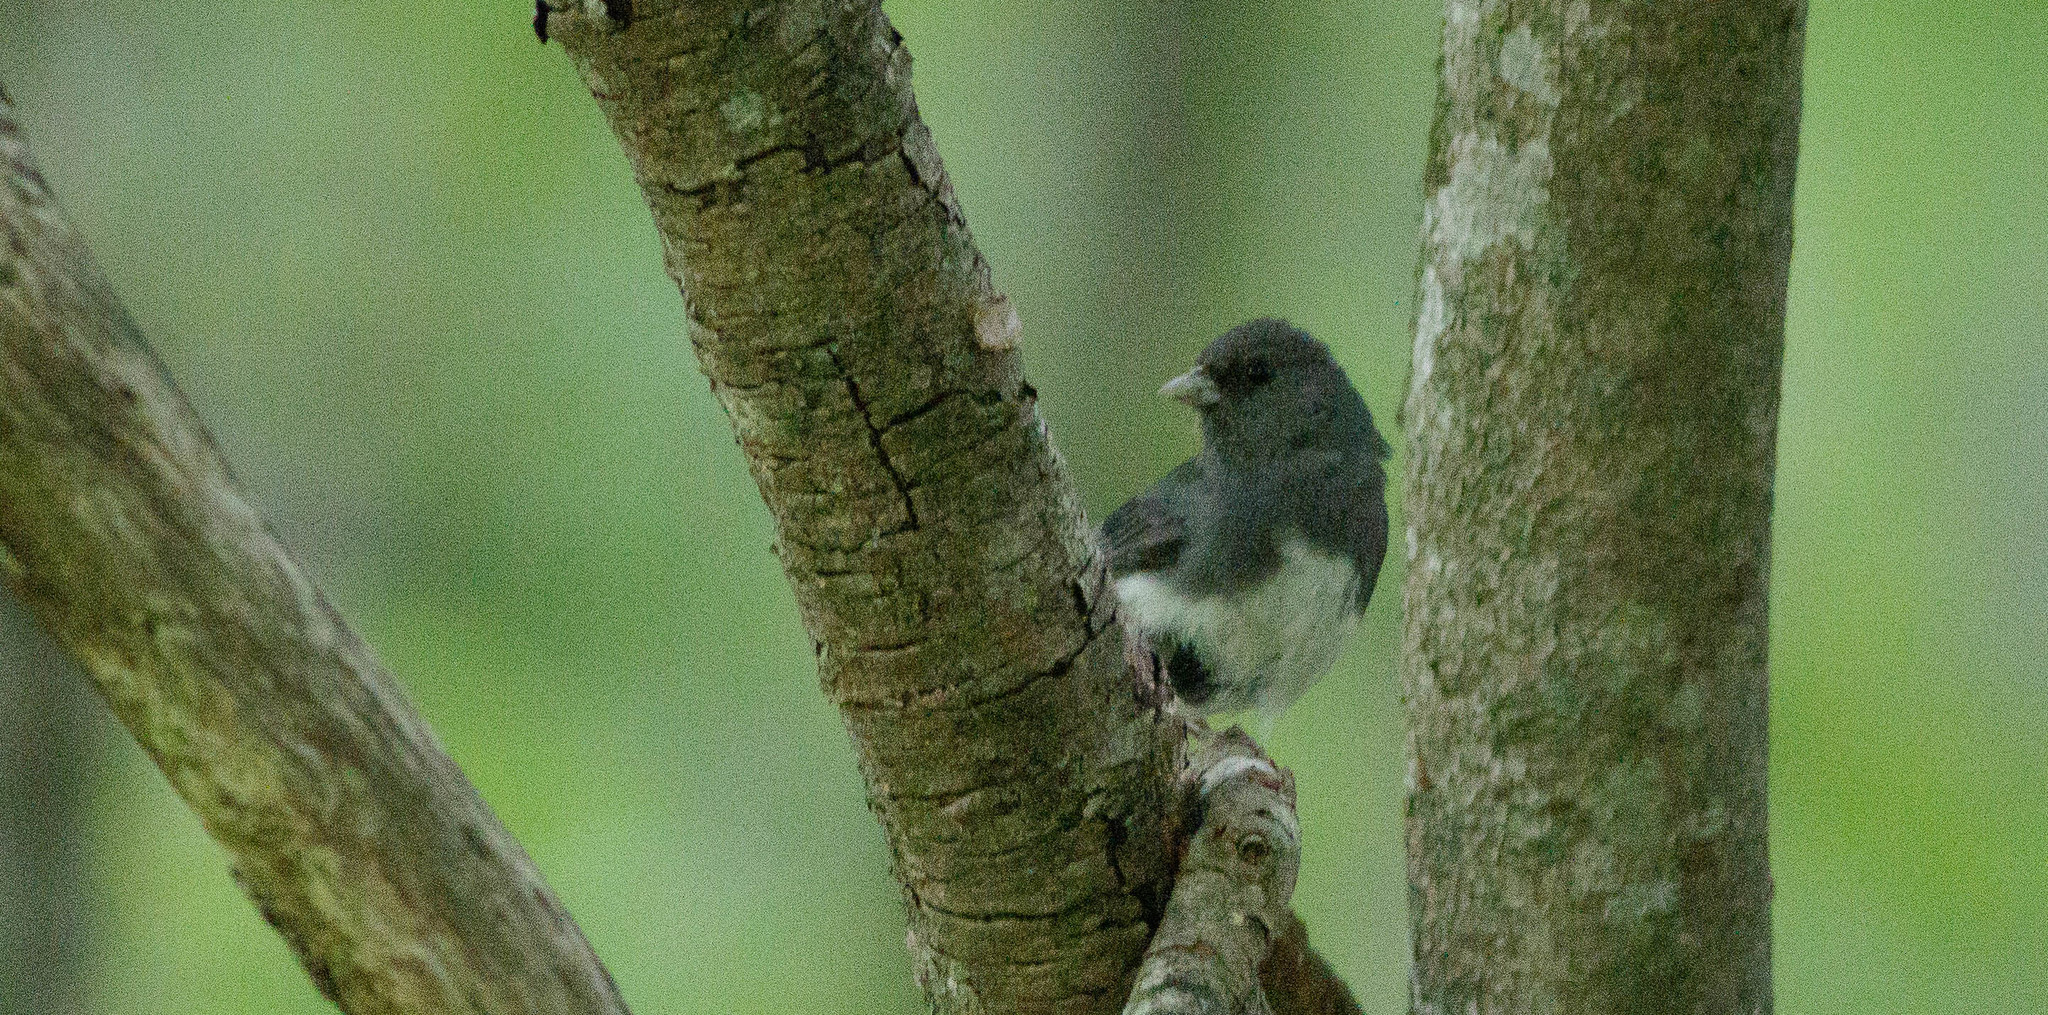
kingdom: Animalia
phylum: Chordata
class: Aves
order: Passeriformes
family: Passerellidae
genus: Junco
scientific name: Junco hyemalis
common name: Dark-eyed junco
